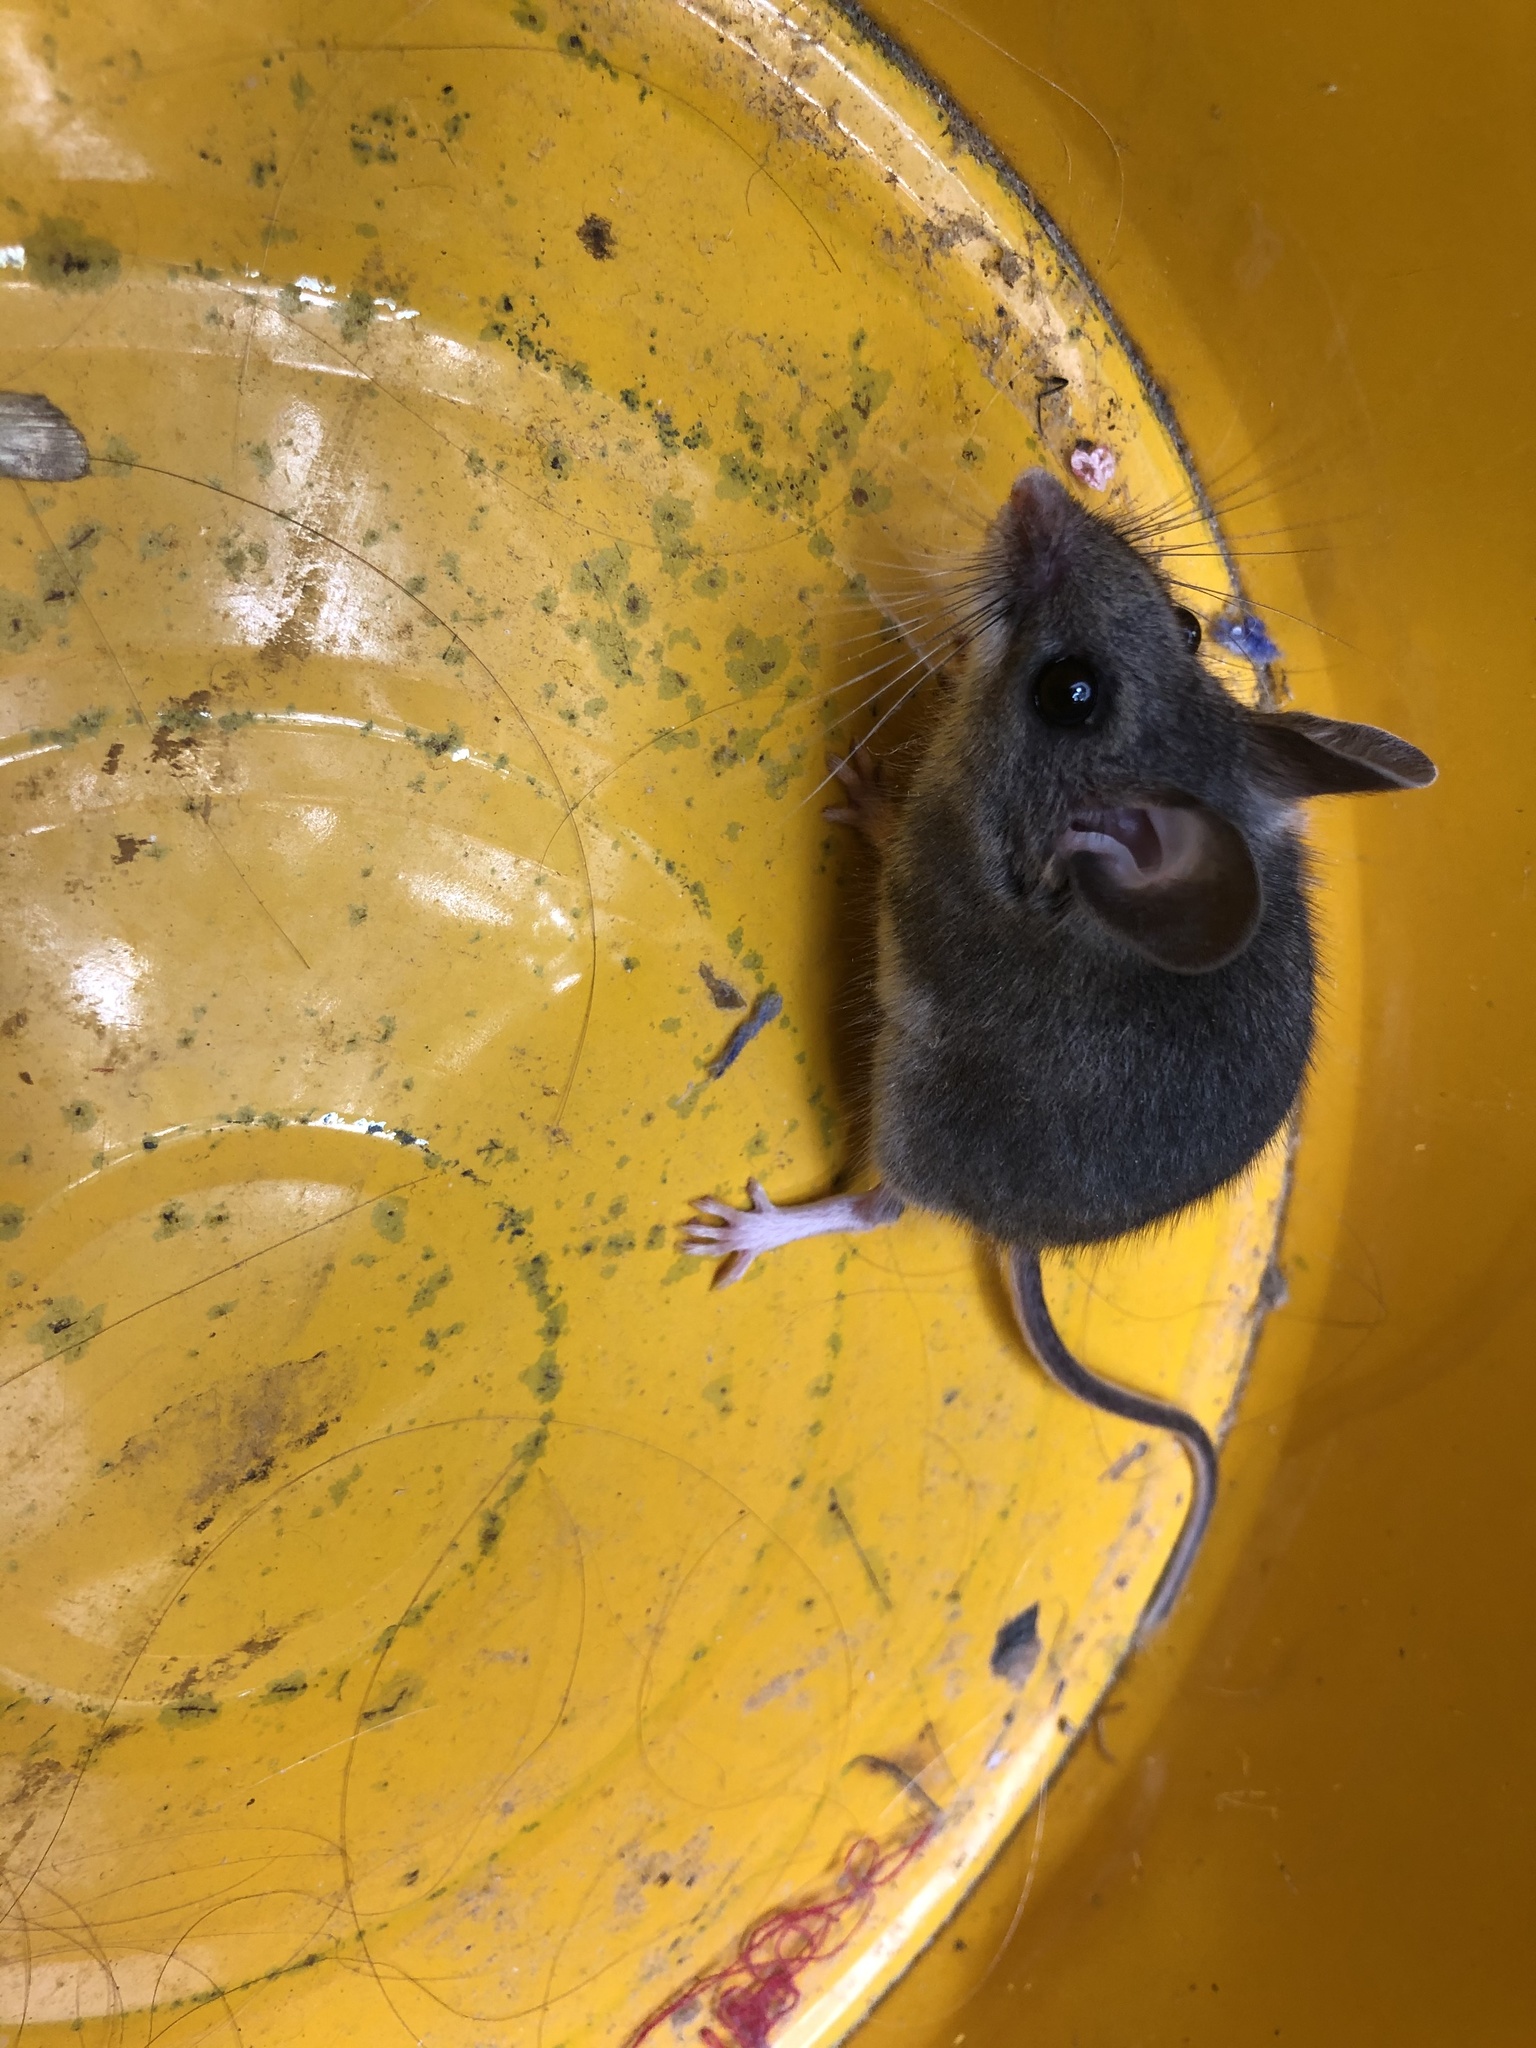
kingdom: Animalia
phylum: Chordata
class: Mammalia
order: Rodentia
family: Cricetidae
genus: Peromyscus
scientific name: Peromyscus maniculatus
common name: Deer mouse
